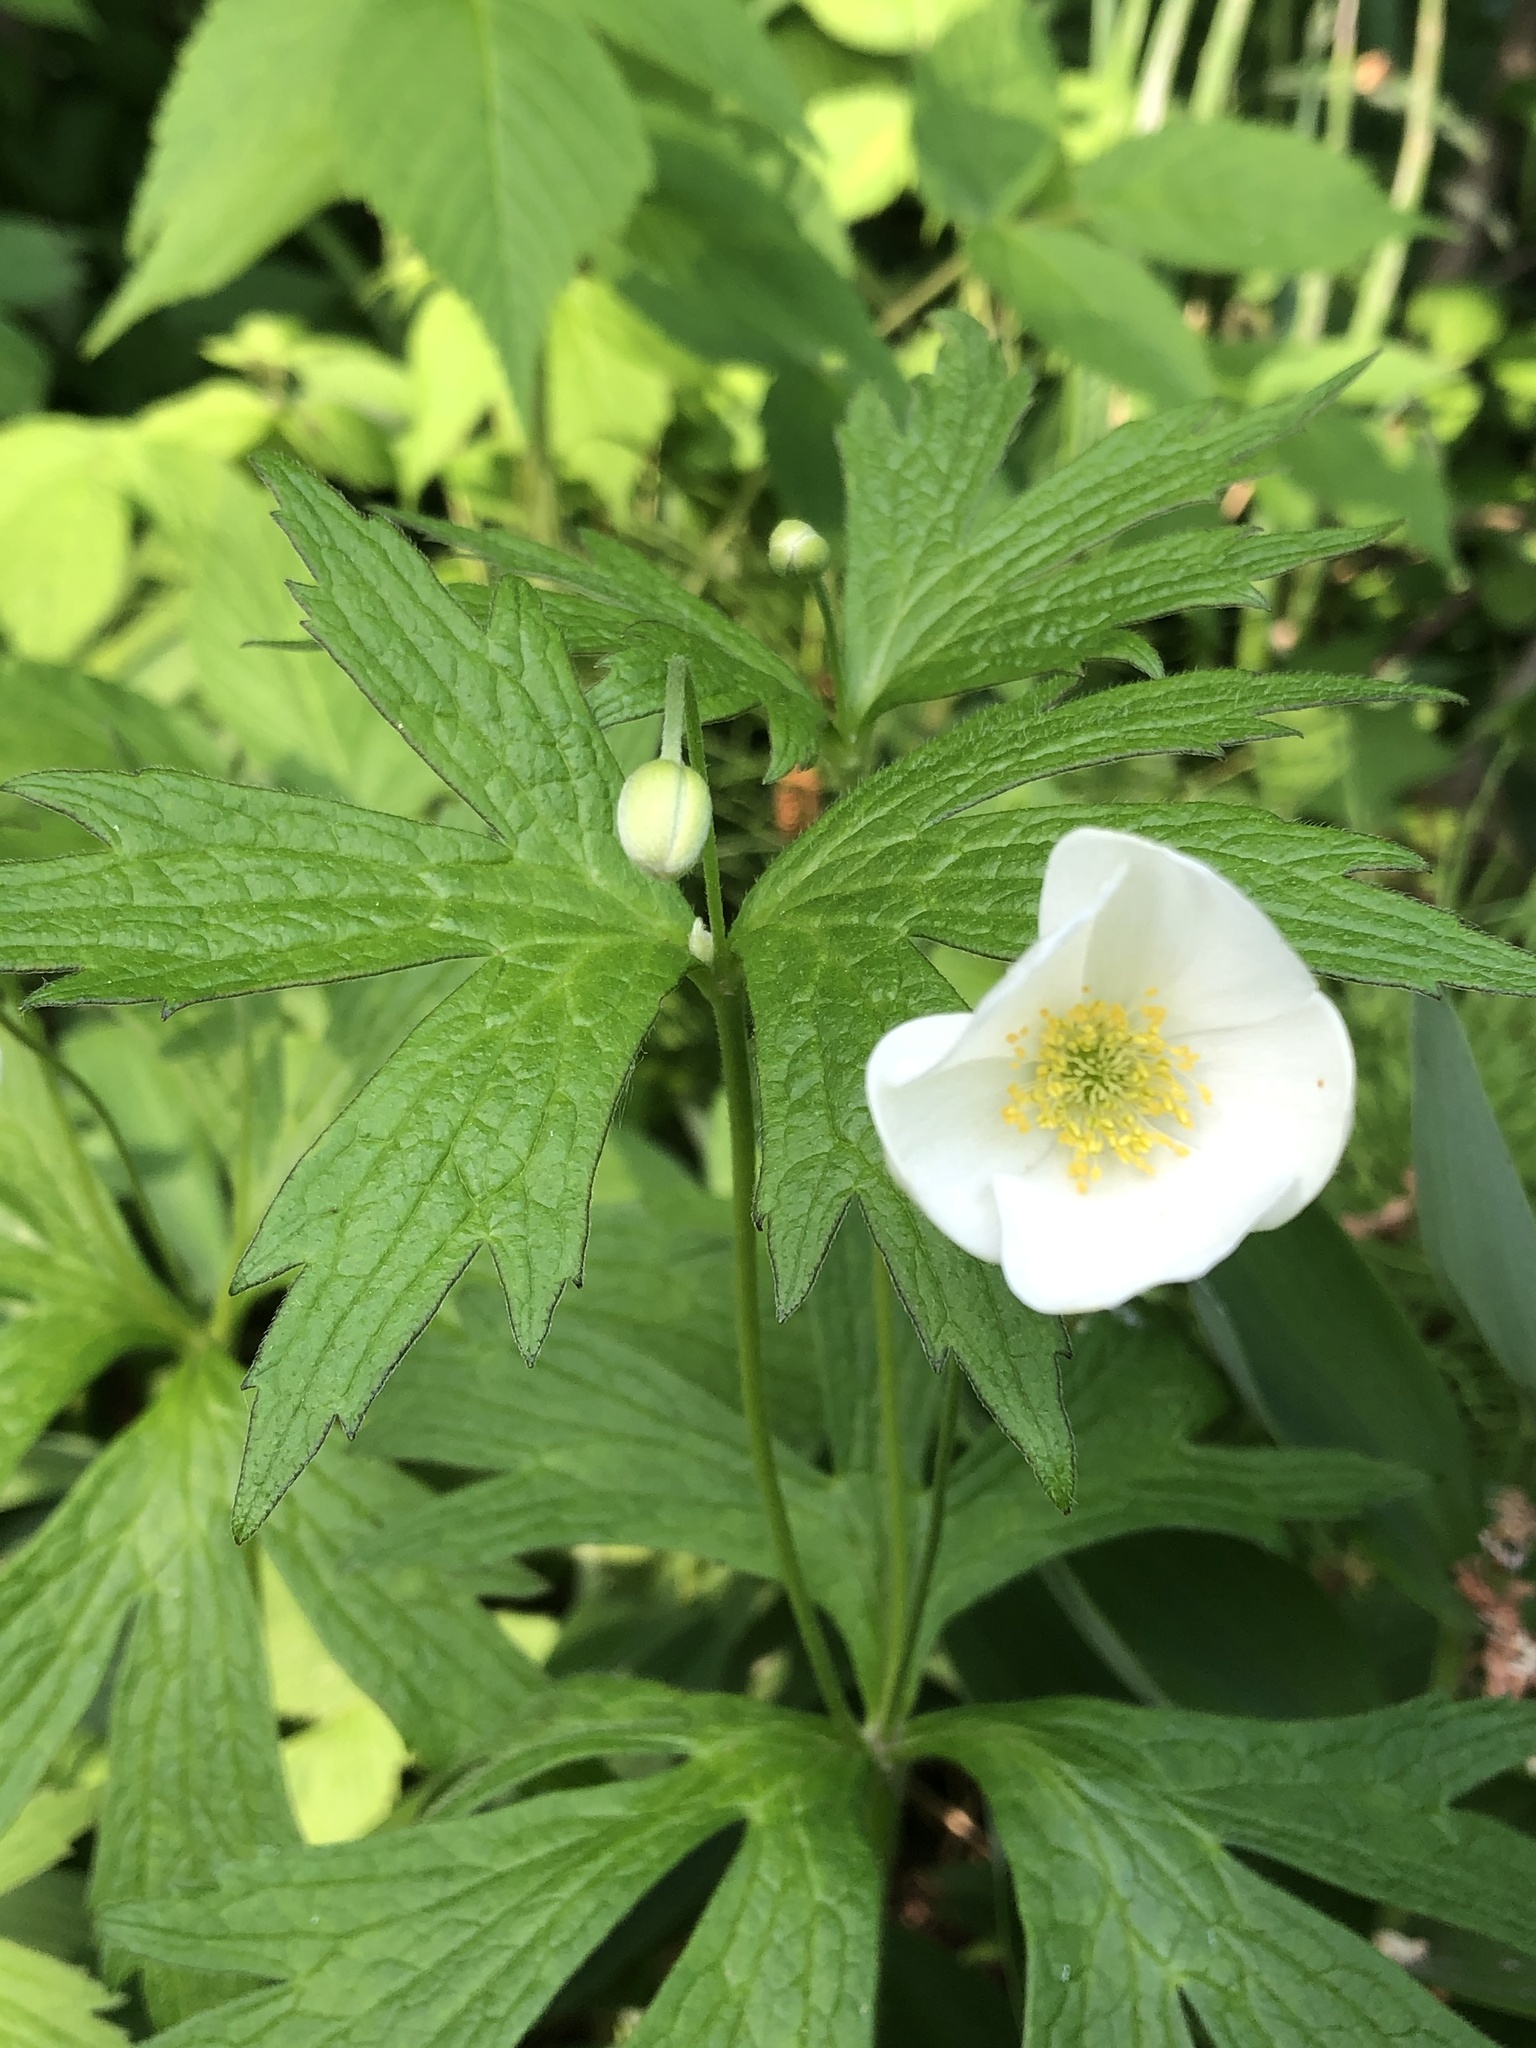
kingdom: Plantae
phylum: Tracheophyta
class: Magnoliopsida
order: Ranunculales
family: Ranunculaceae
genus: Anemonastrum
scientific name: Anemonastrum canadense
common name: Canada anemone
